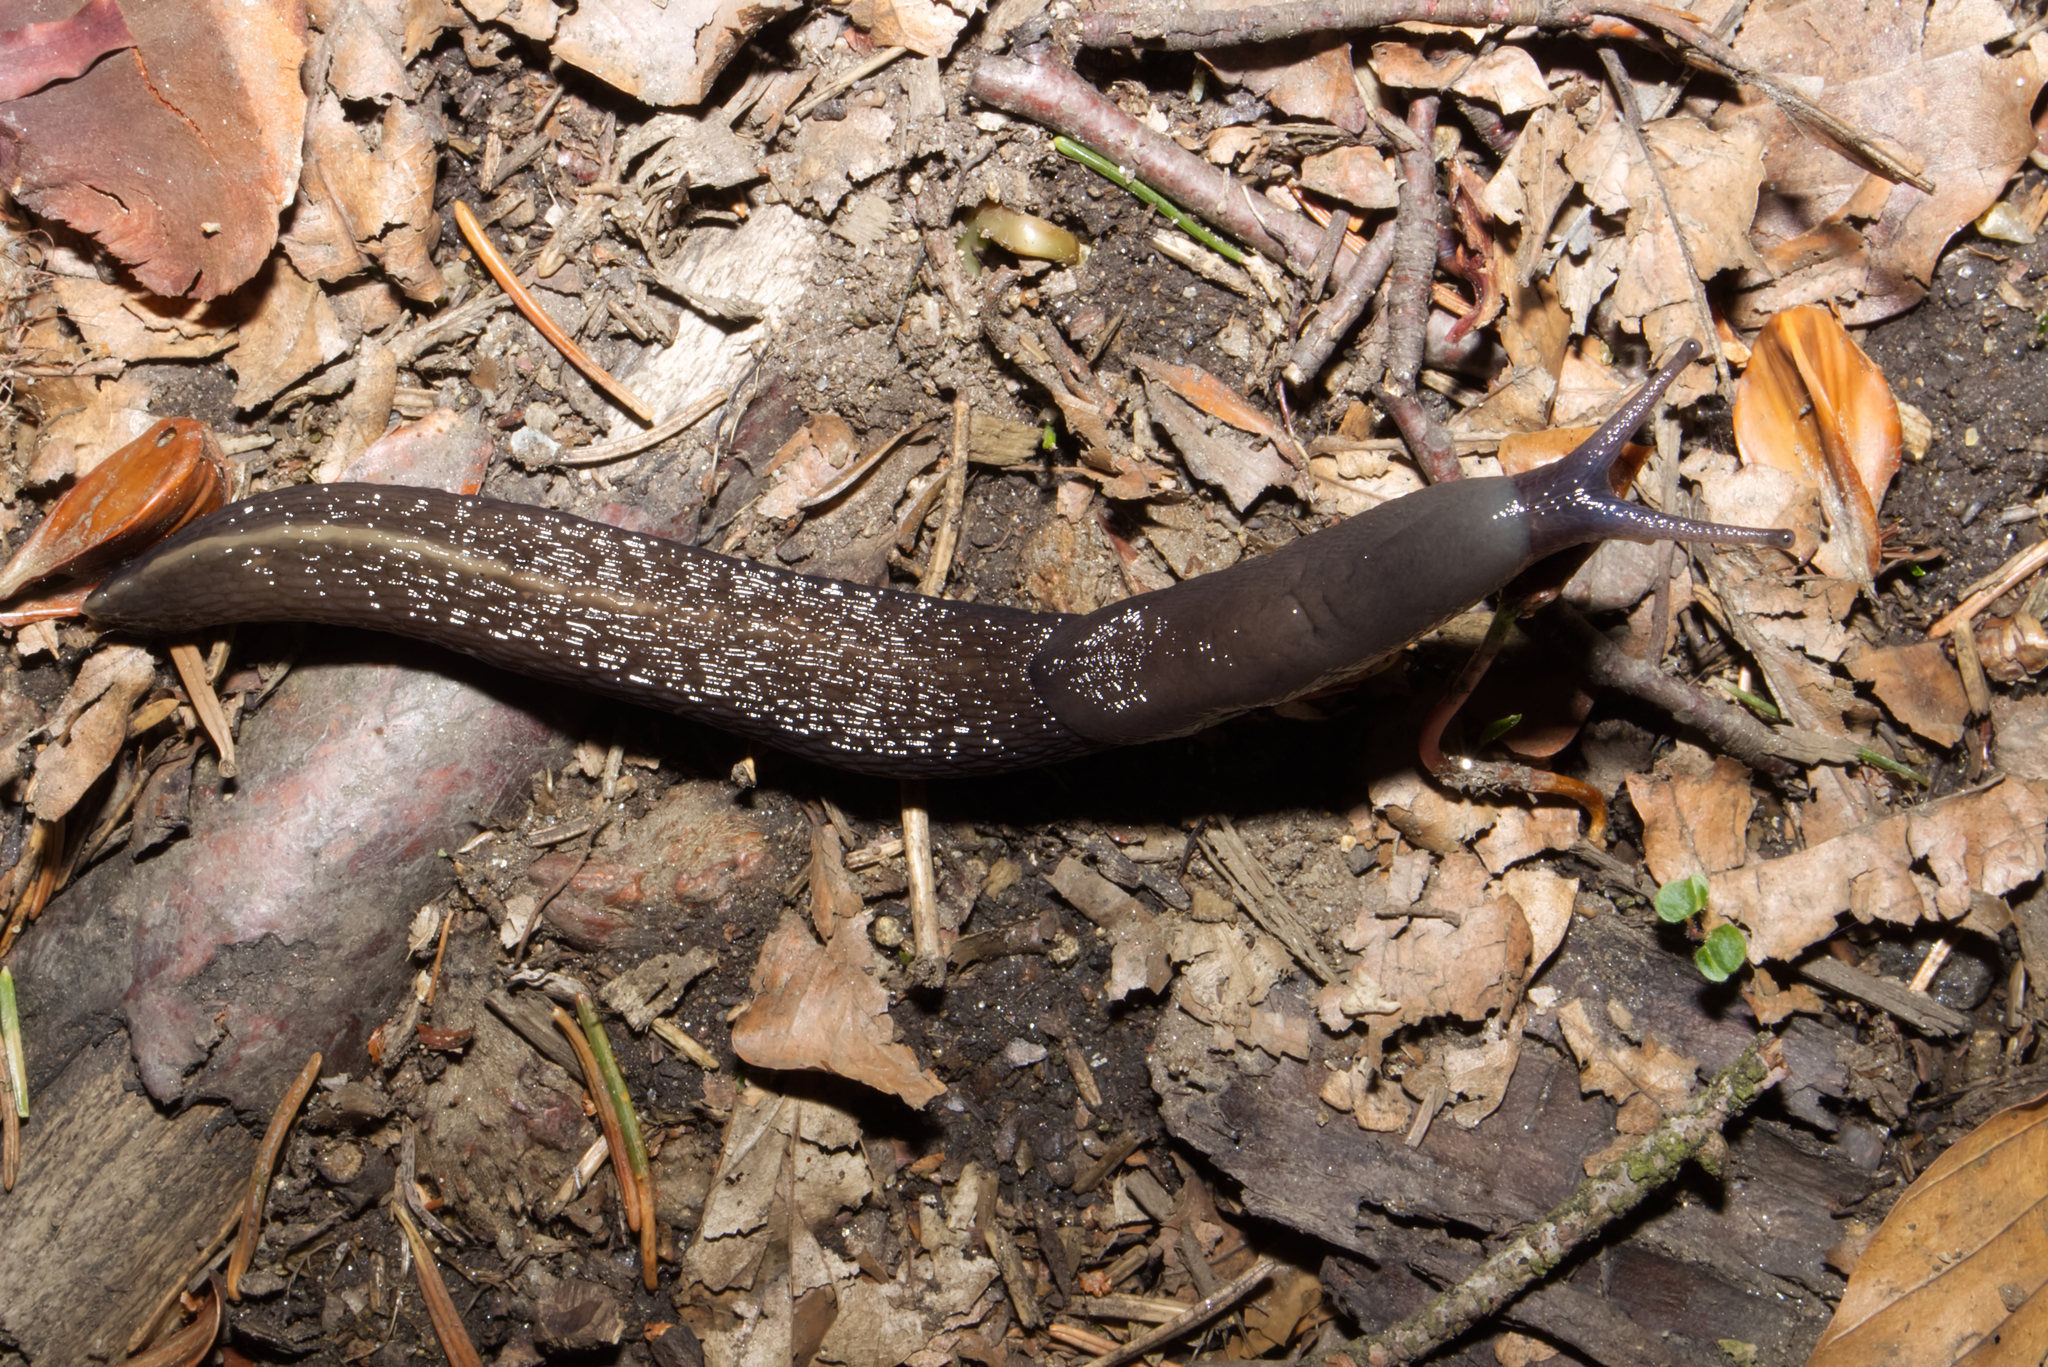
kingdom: Animalia
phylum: Mollusca
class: Gastropoda
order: Stylommatophora
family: Limacidae
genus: Limax
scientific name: Limax cinereoniger
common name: Ash-black slug
